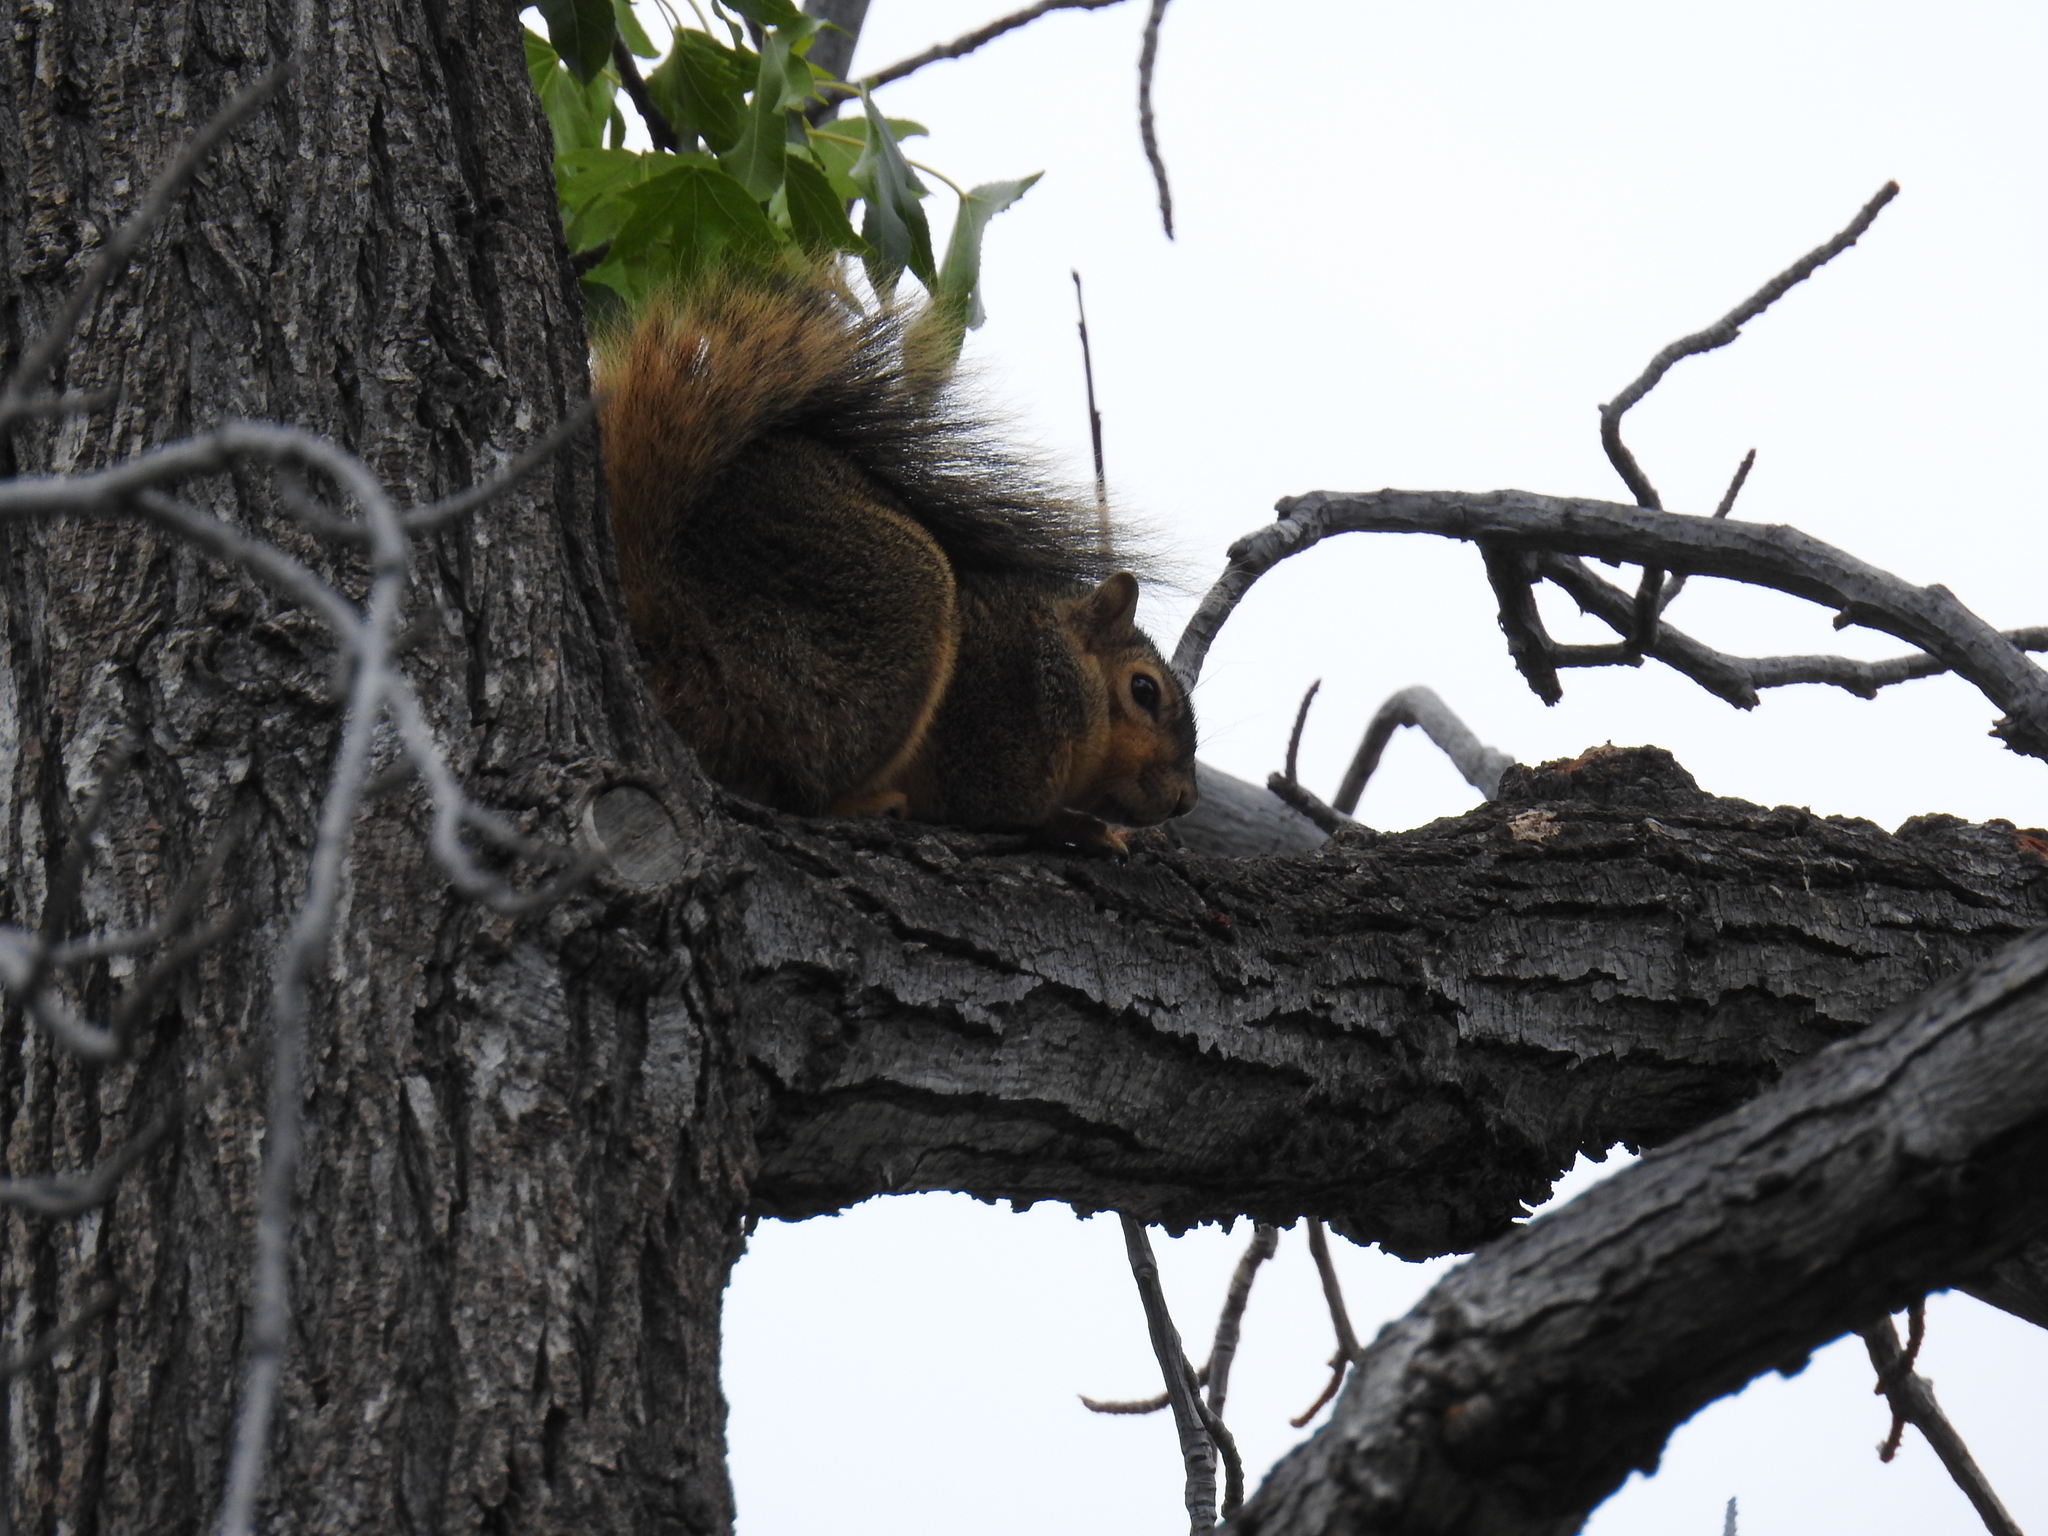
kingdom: Animalia
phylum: Chordata
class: Mammalia
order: Rodentia
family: Sciuridae
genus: Sciurus
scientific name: Sciurus niger
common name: Fox squirrel
